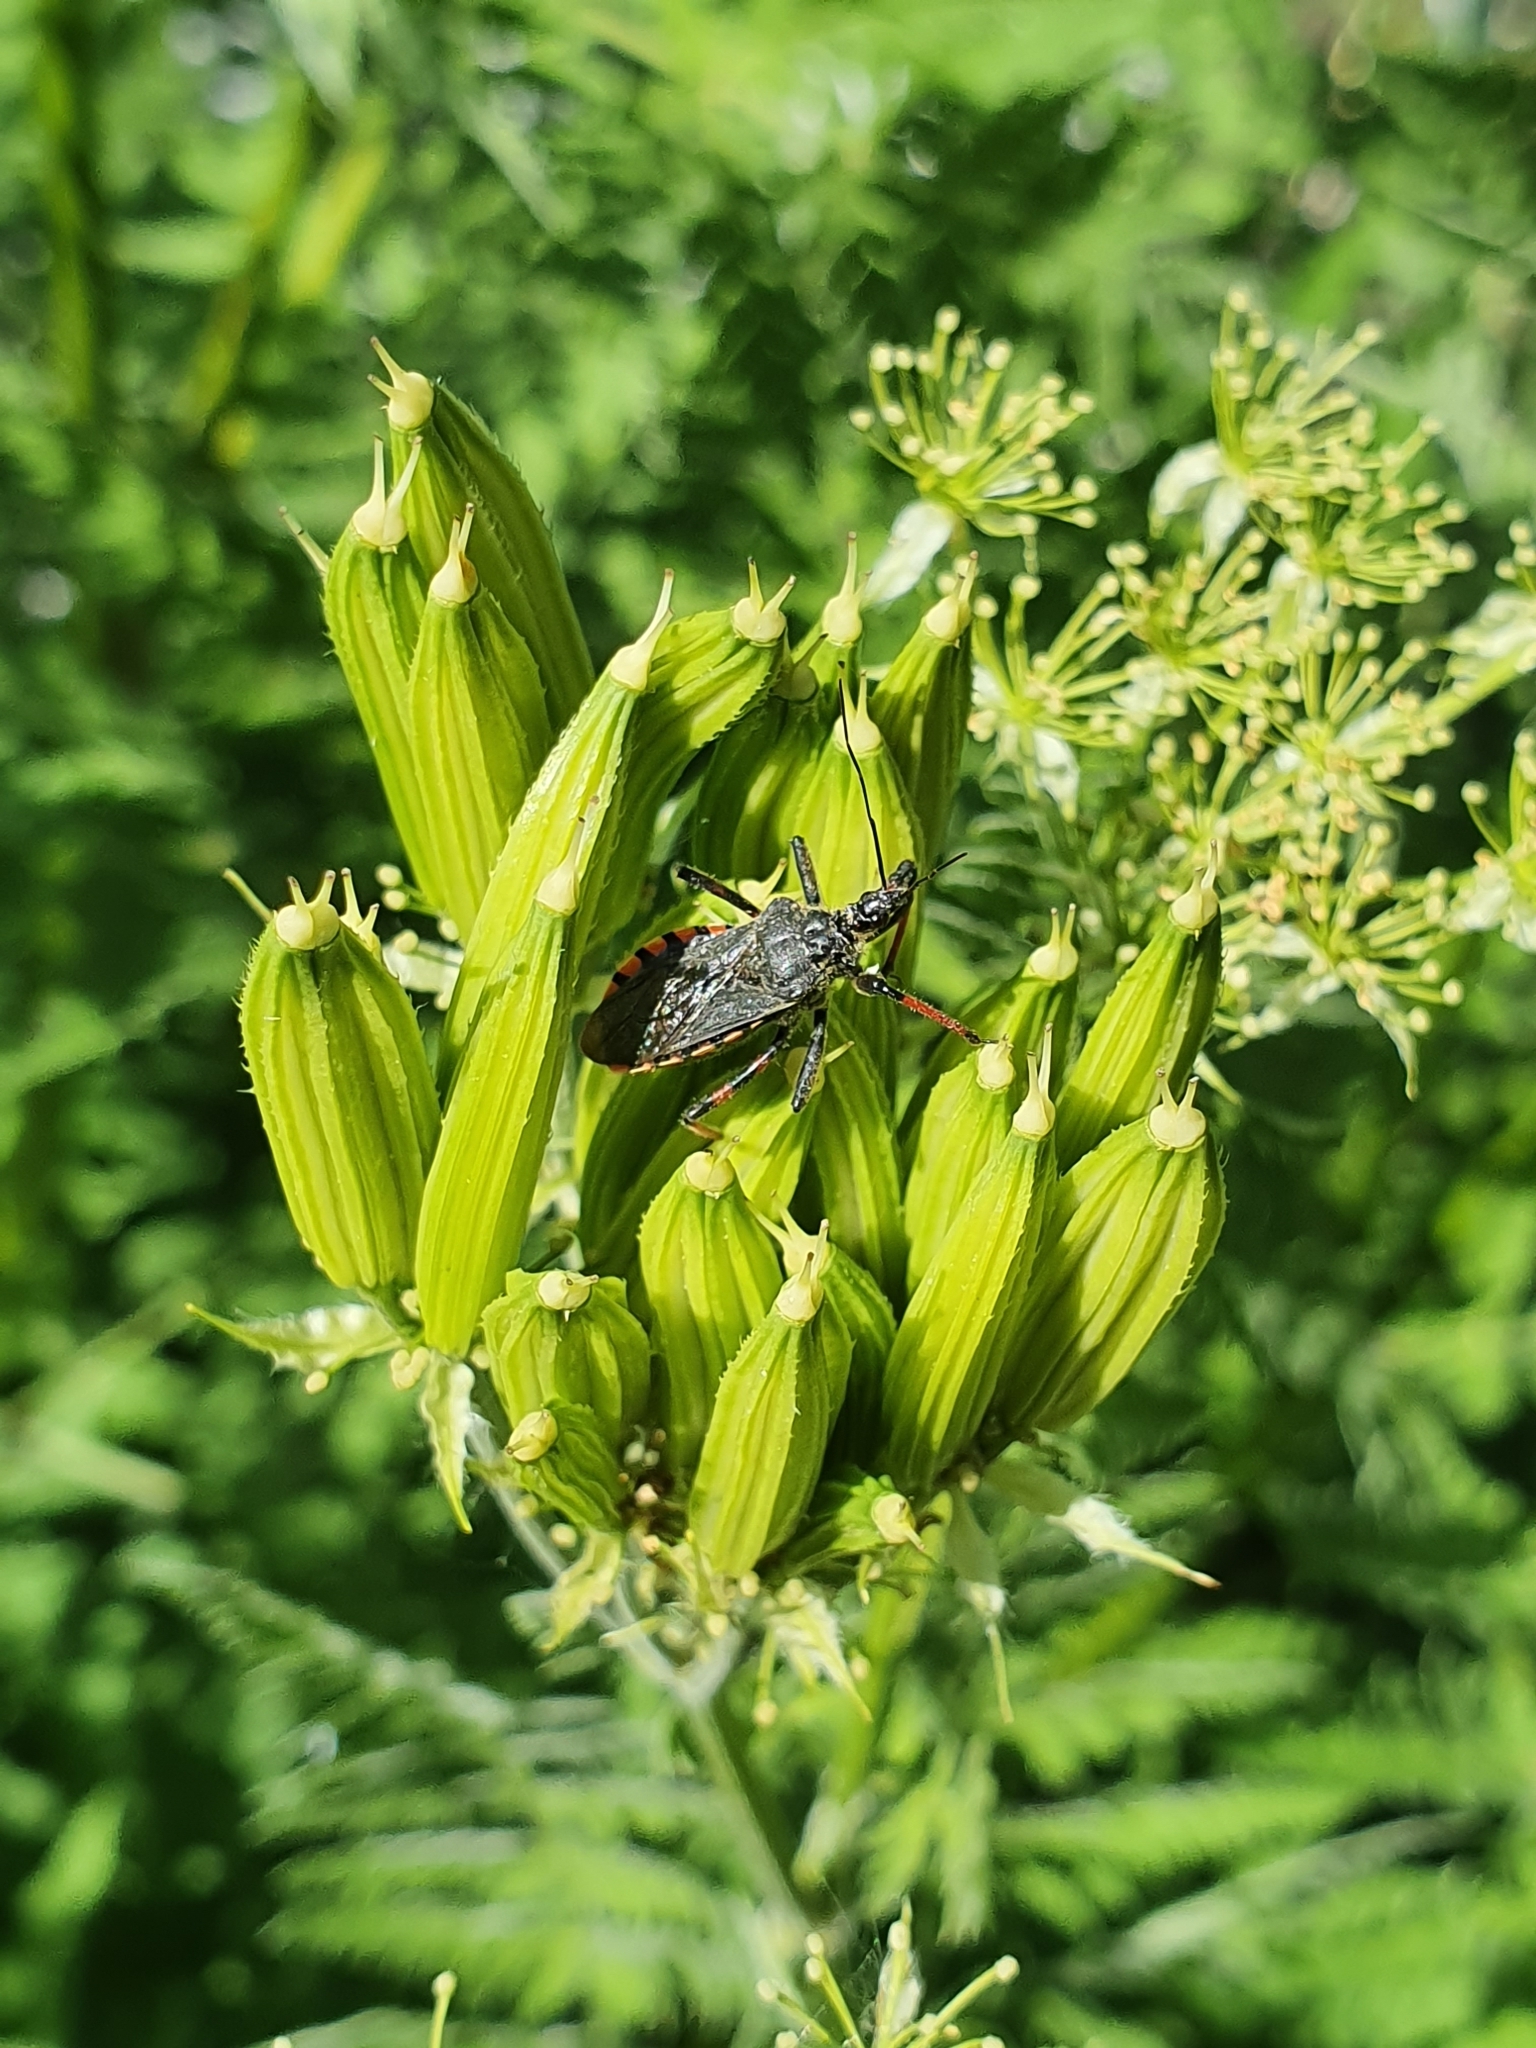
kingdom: Animalia
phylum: Arthropoda
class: Insecta
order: Hemiptera
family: Reduviidae
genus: Rhynocoris
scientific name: Rhynocoris annulatus
